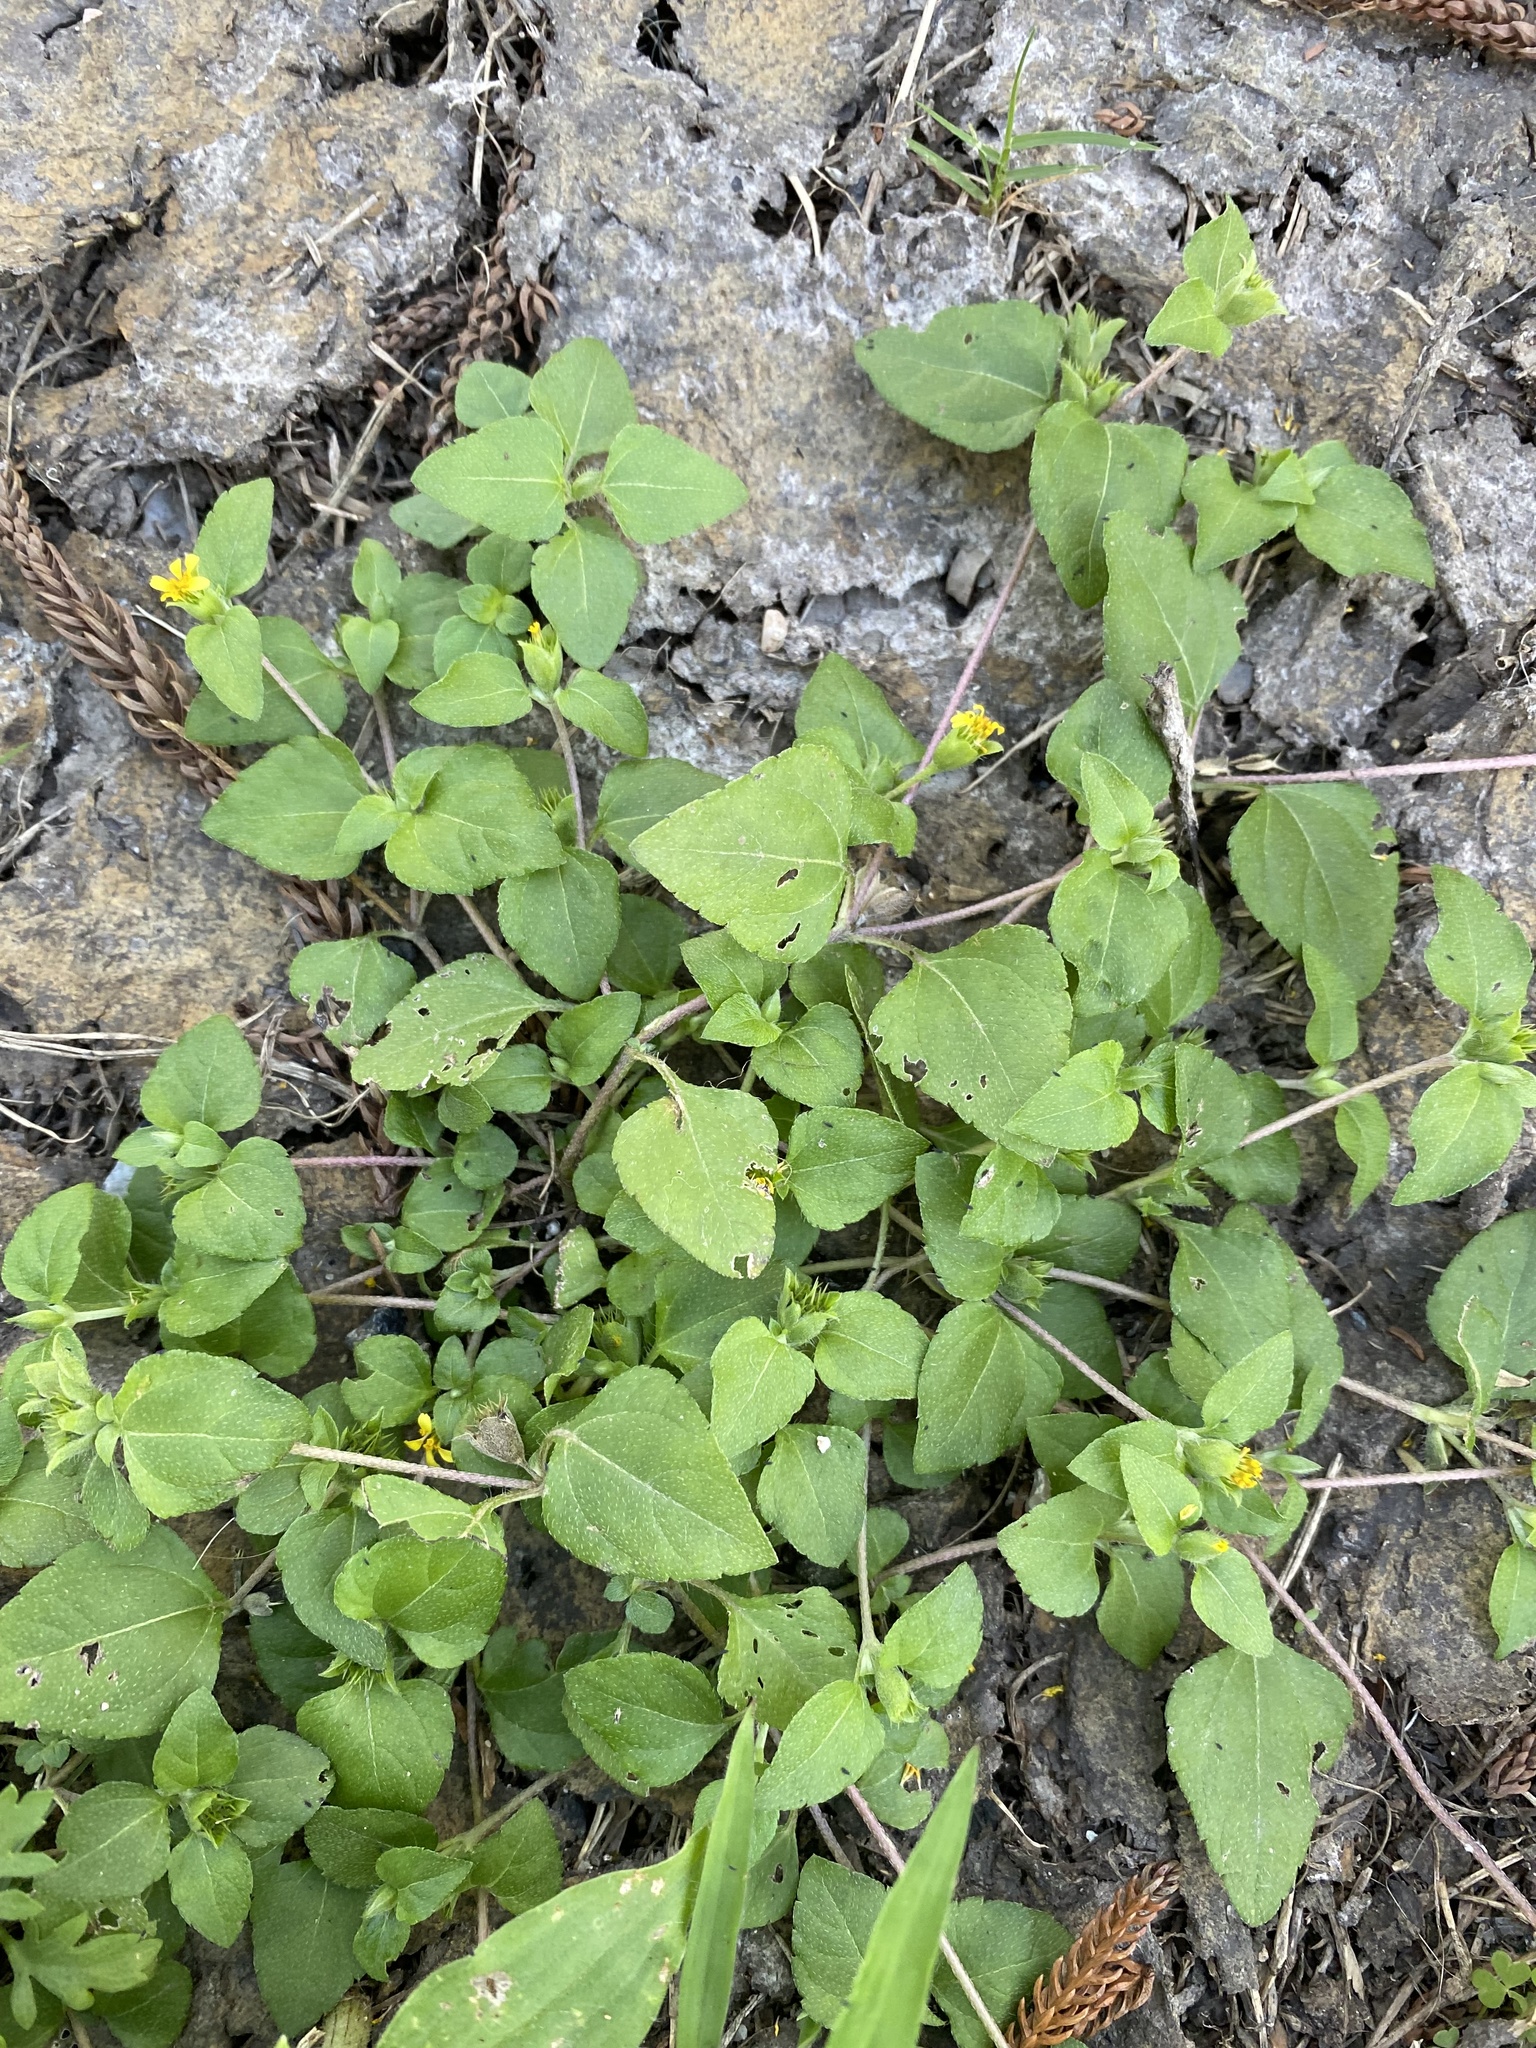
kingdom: Plantae
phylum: Tracheophyta
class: Magnoliopsida
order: Asterales
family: Asteraceae
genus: Calyptocarpus
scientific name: Calyptocarpus vialis
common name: Straggler daisy
